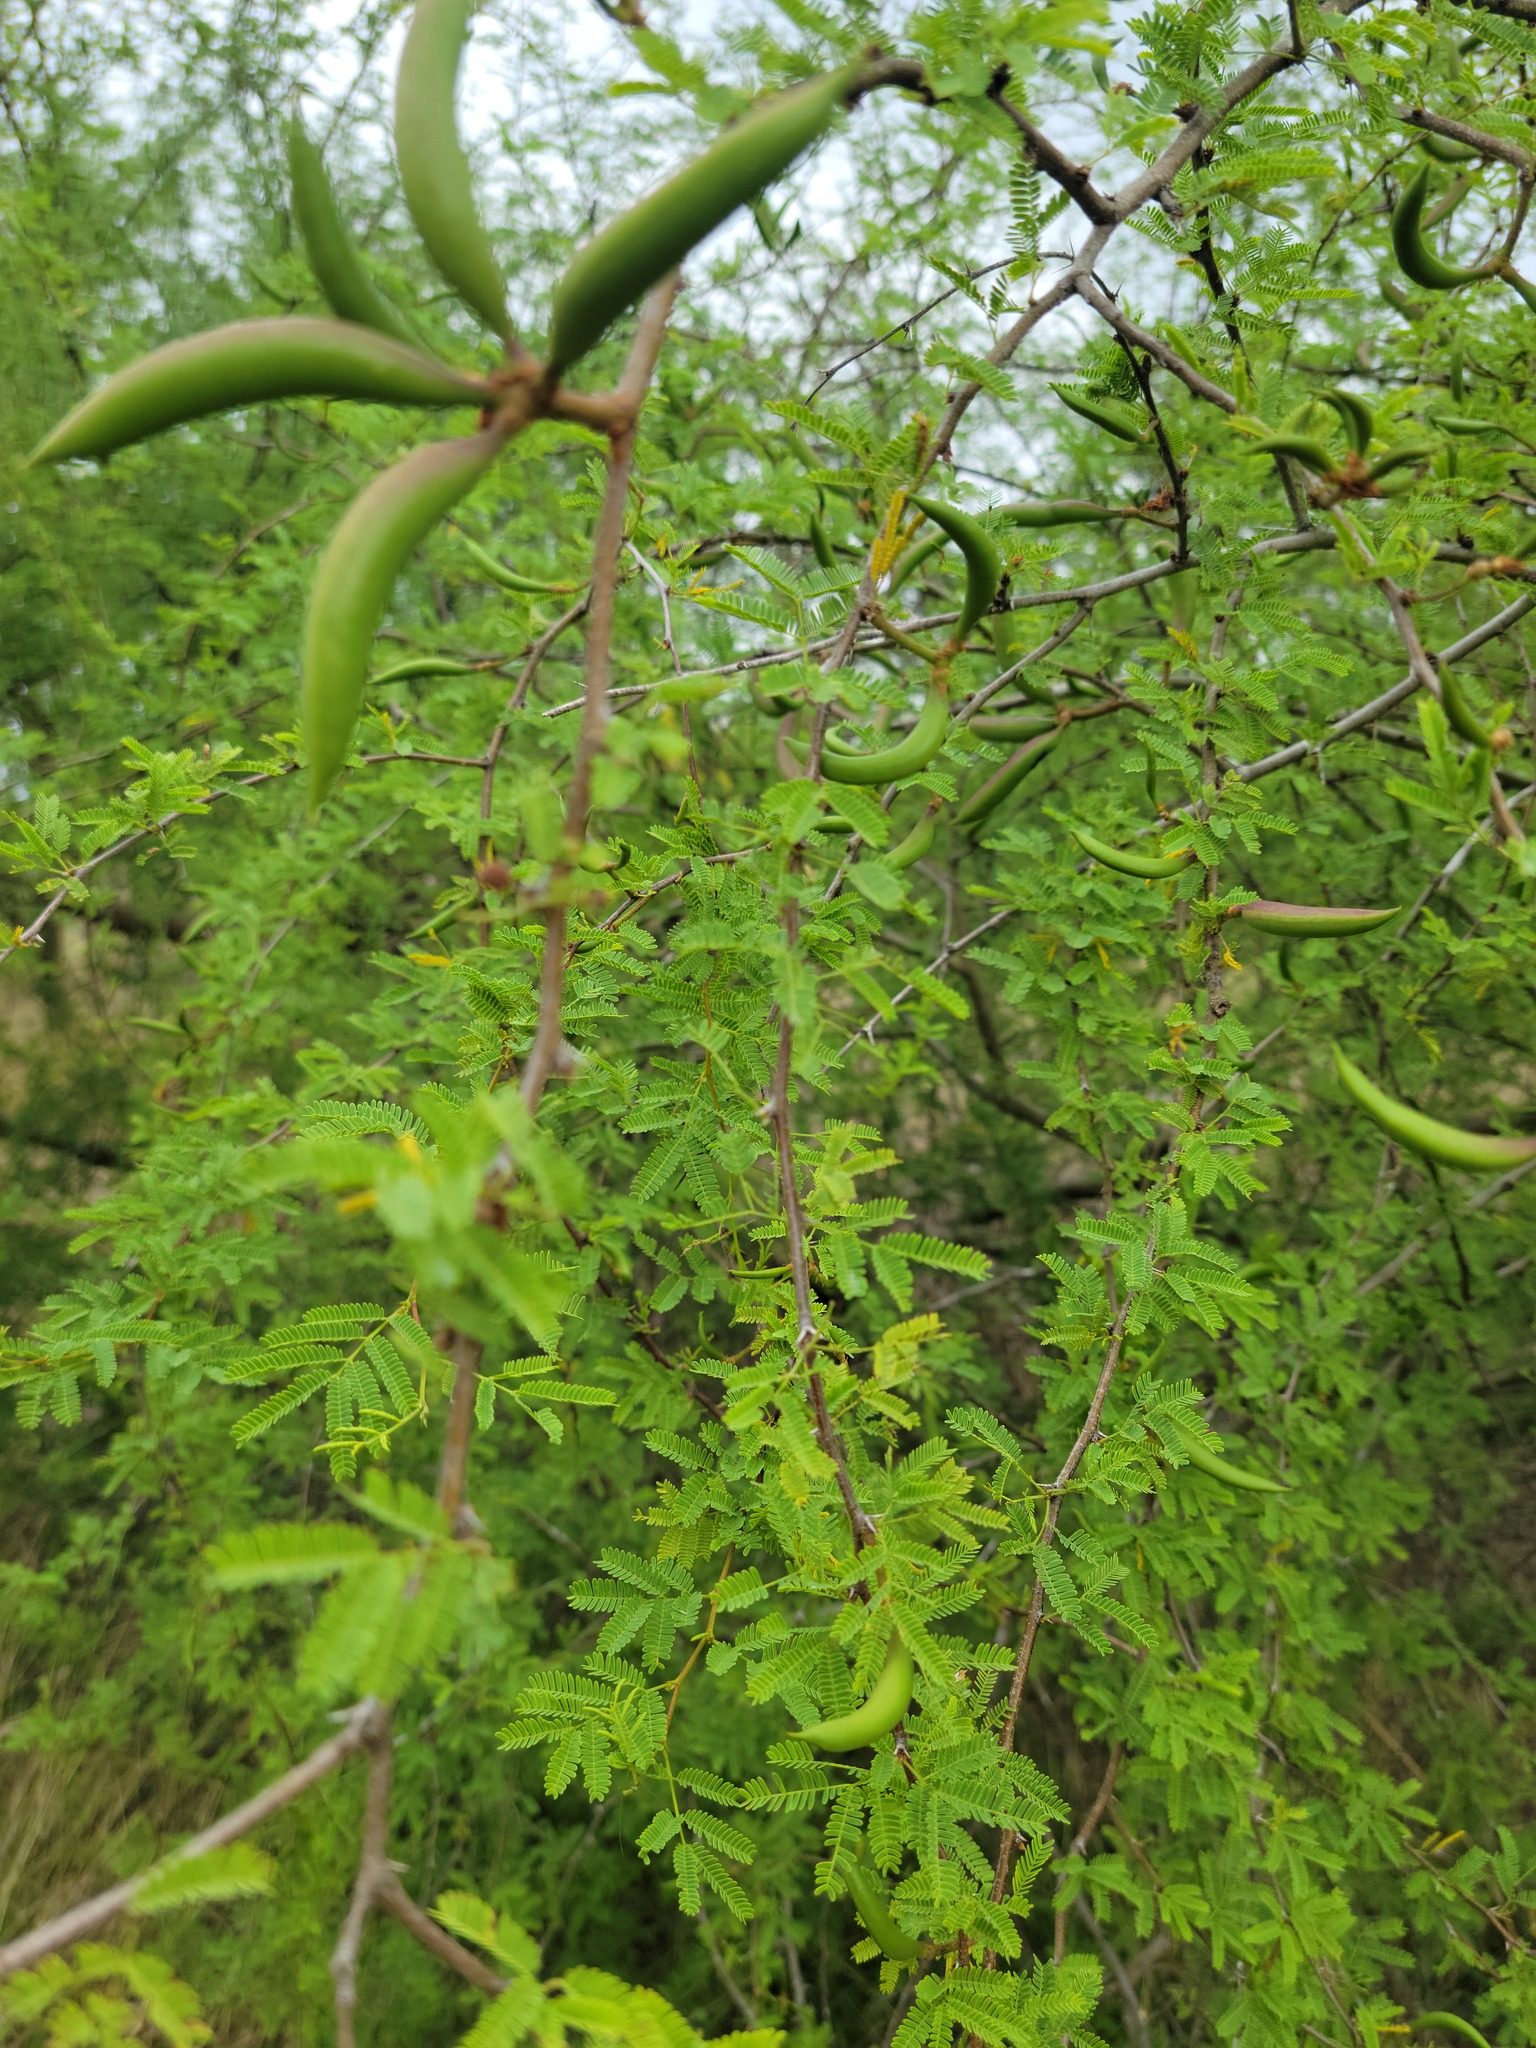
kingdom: Plantae
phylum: Tracheophyta
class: Magnoliopsida
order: Fabales
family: Fabaceae
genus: Vachellia
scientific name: Vachellia farnesiana
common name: Sweet acacia
